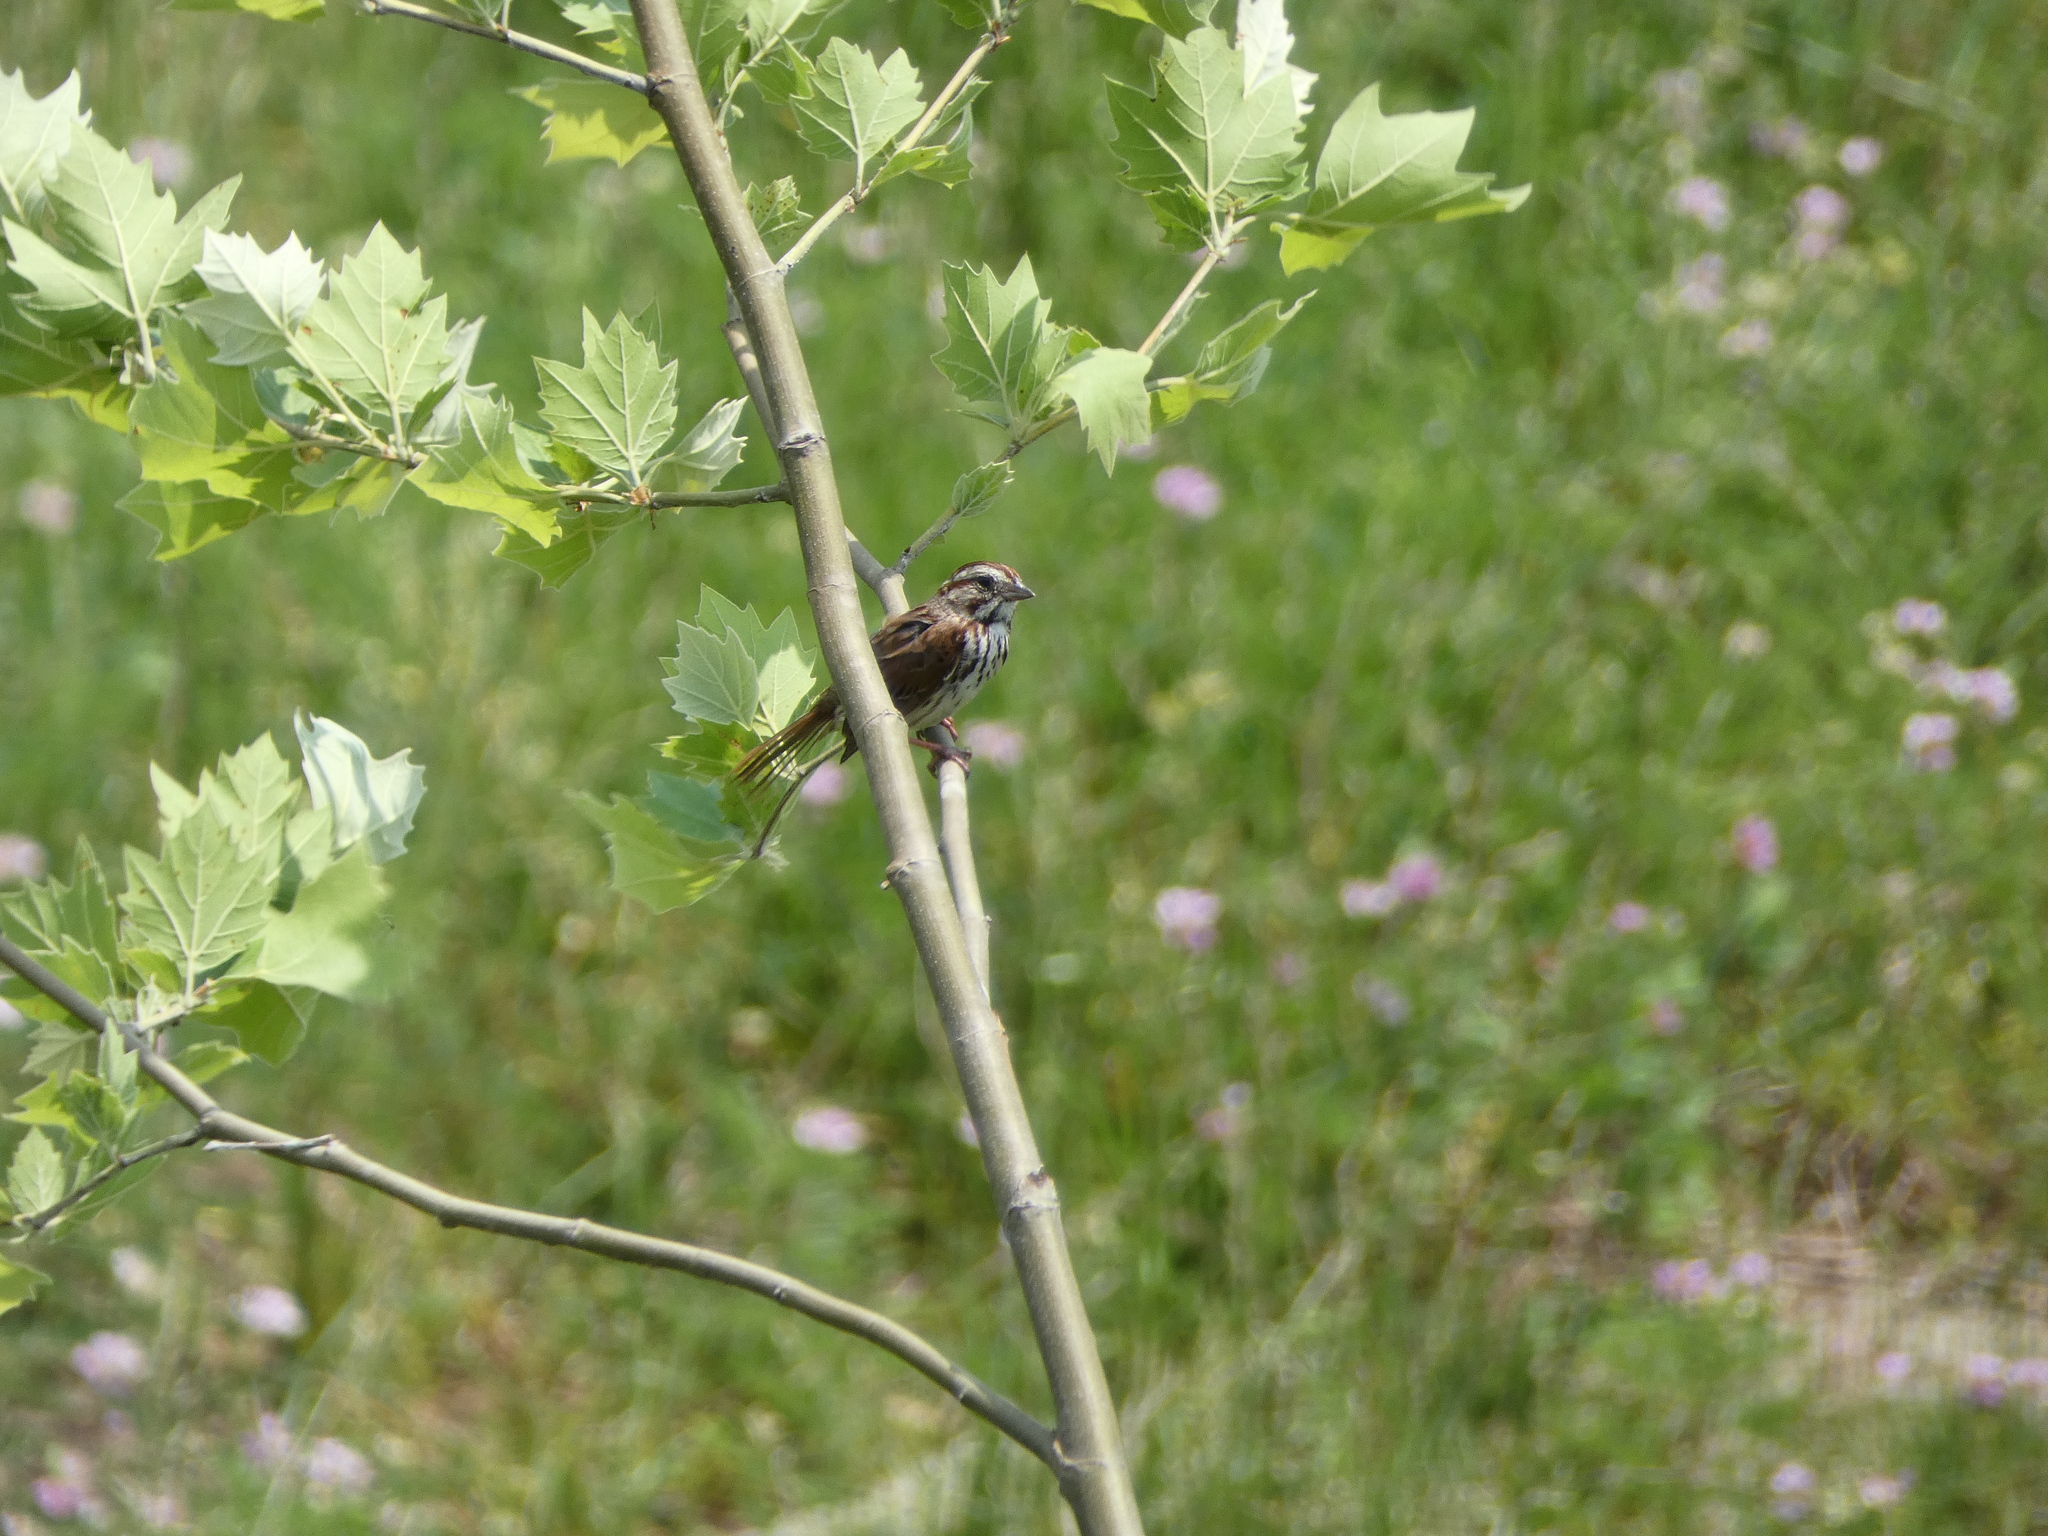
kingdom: Animalia
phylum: Chordata
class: Aves
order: Passeriformes
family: Passerellidae
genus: Melospiza
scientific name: Melospiza melodia
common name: Song sparrow
